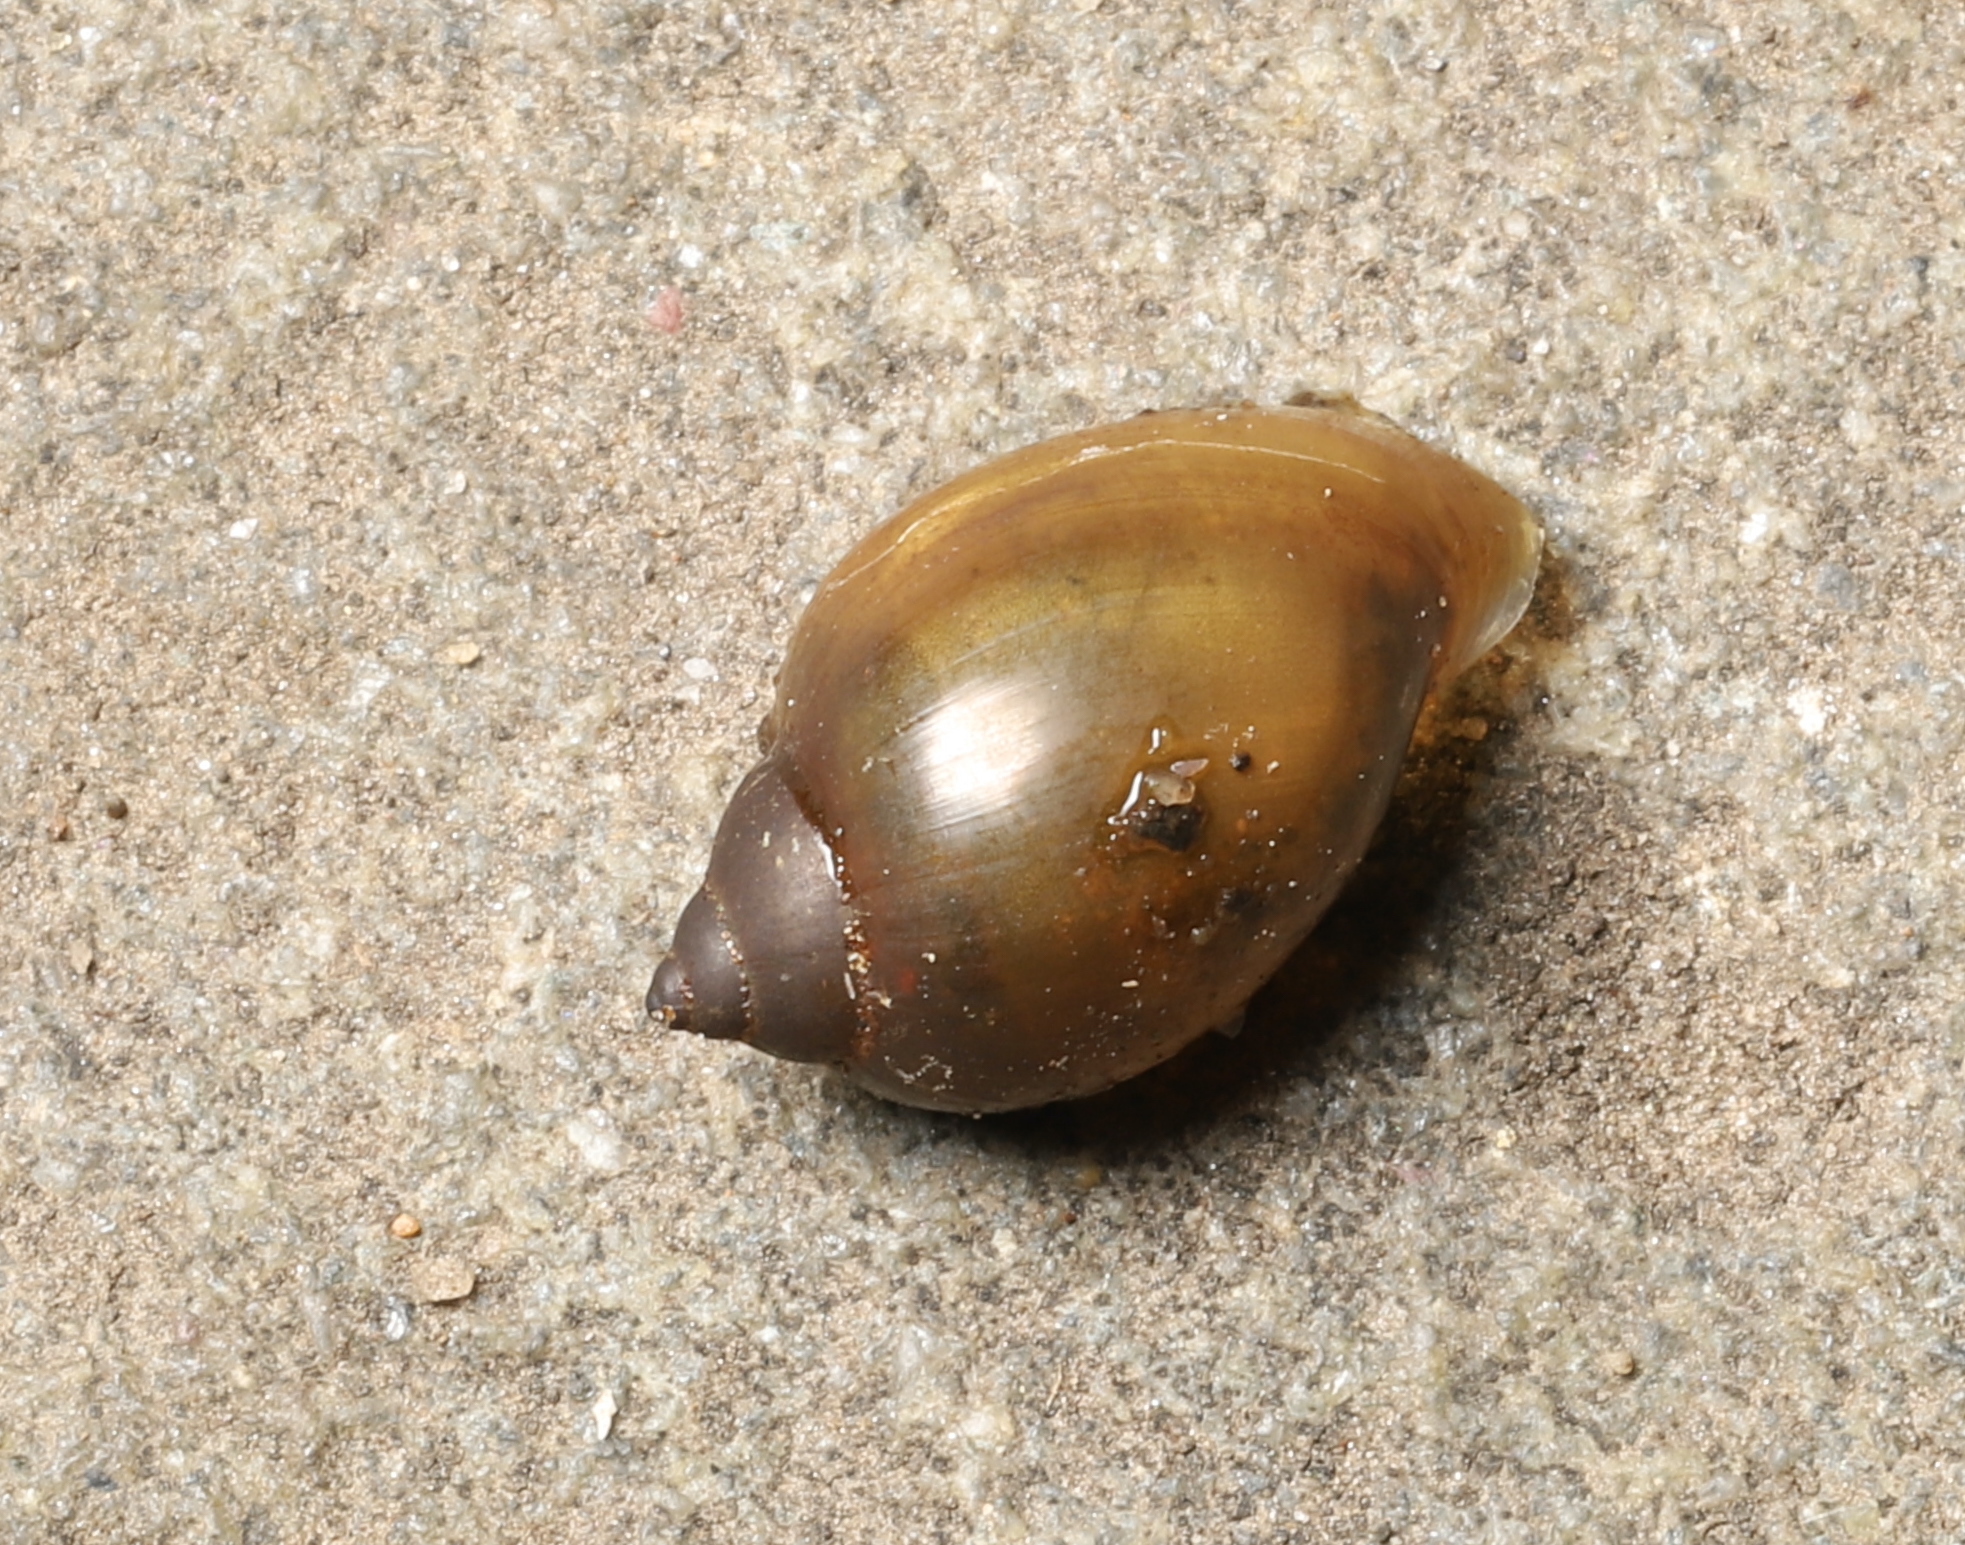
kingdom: Animalia
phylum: Mollusca
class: Gastropoda
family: Physidae
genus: Physella
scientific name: Physella acuta
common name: European physa
